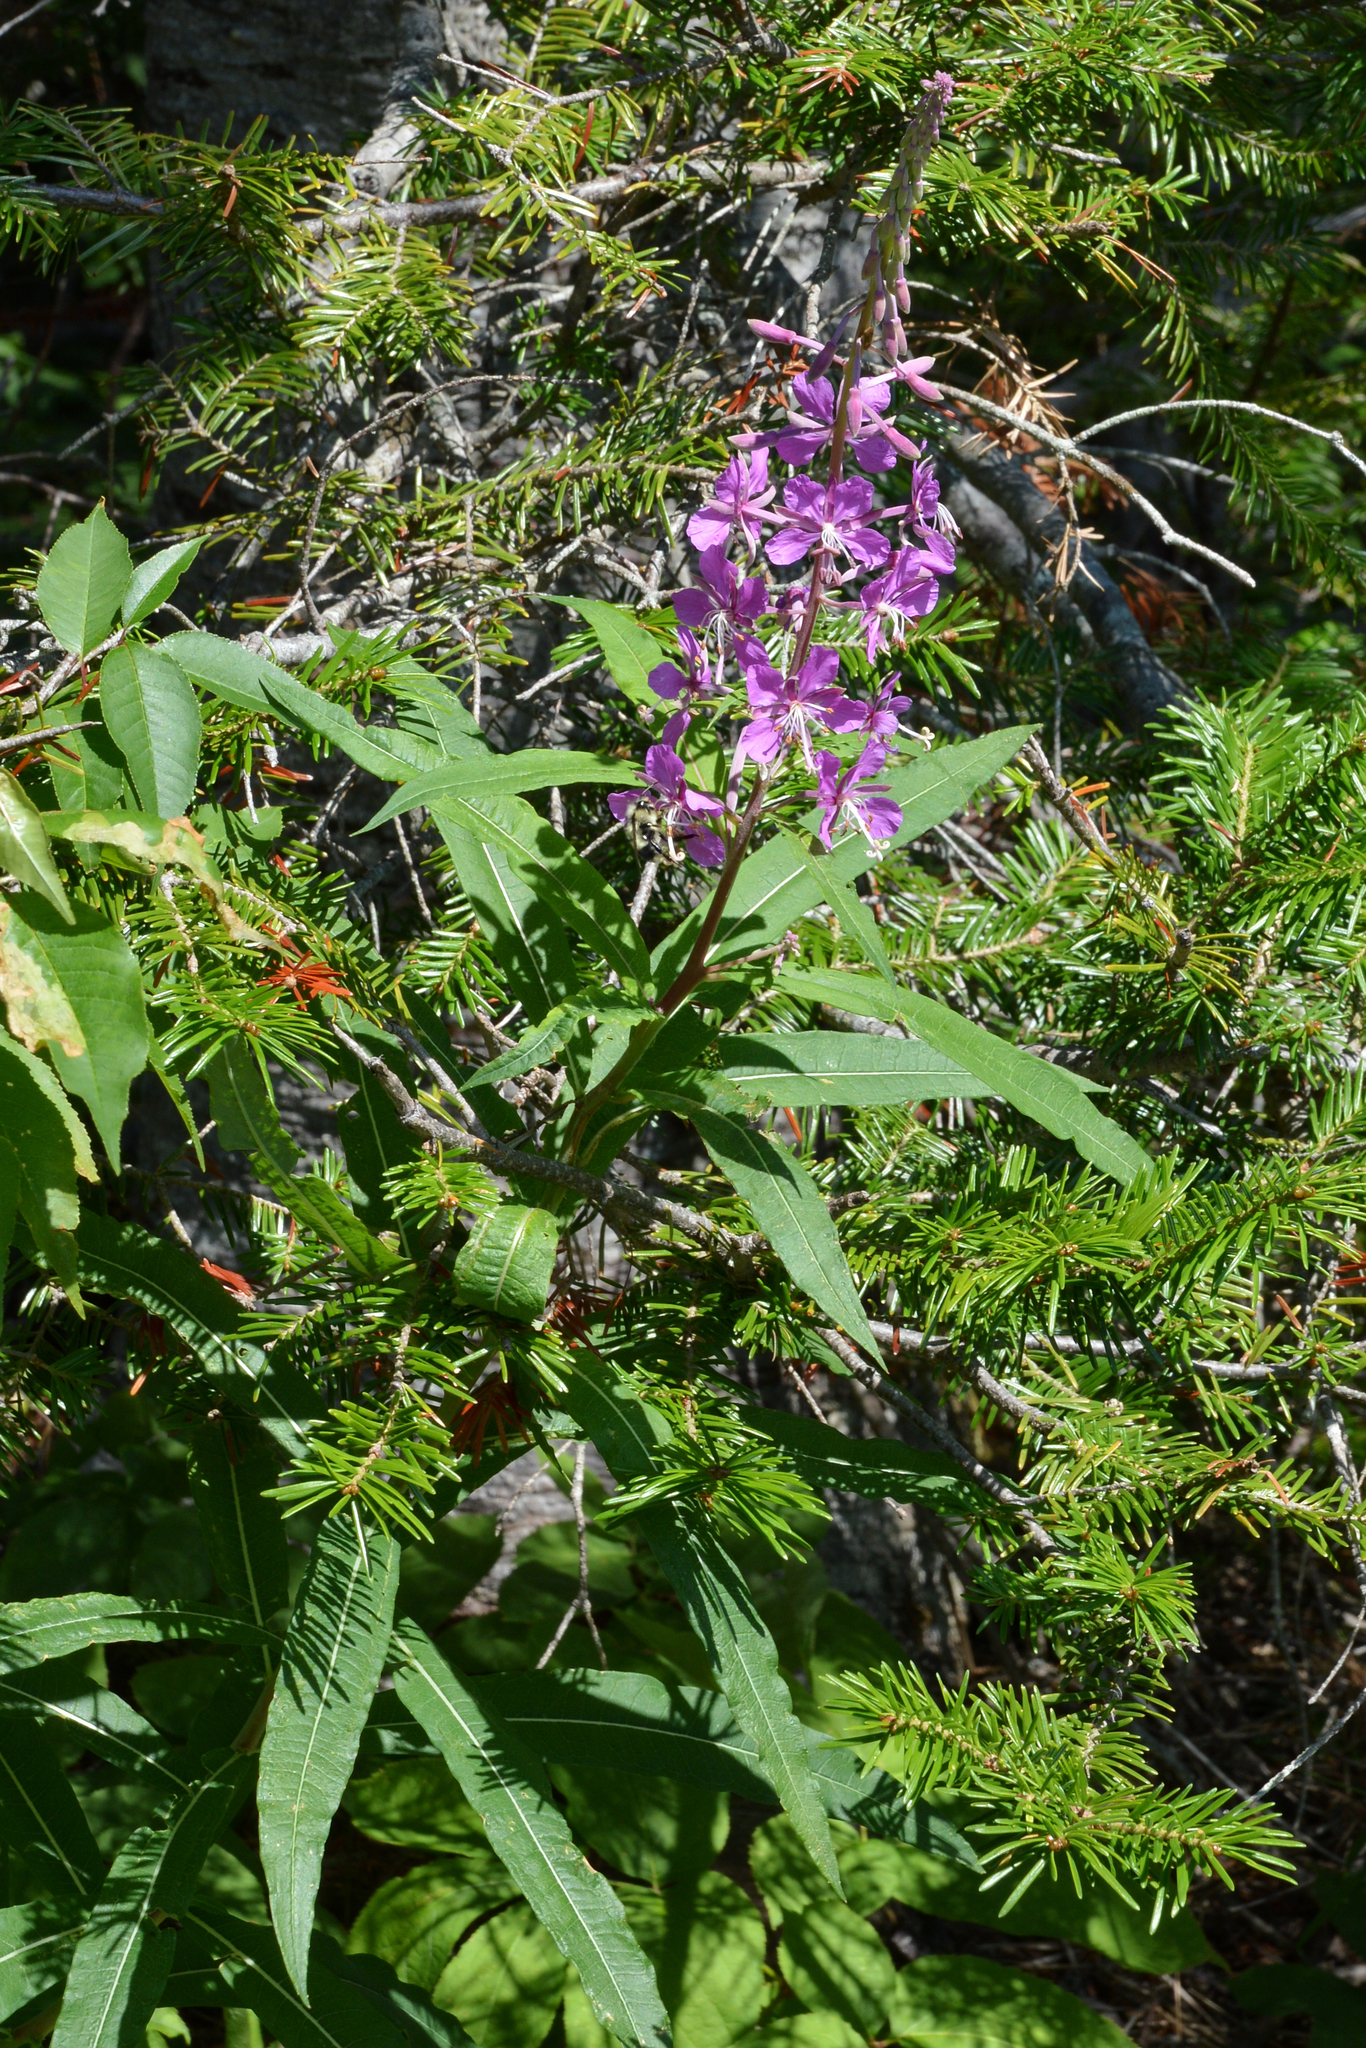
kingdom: Plantae
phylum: Tracheophyta
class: Magnoliopsida
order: Myrtales
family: Onagraceae
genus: Chamaenerion
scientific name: Chamaenerion angustifolium
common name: Fireweed
